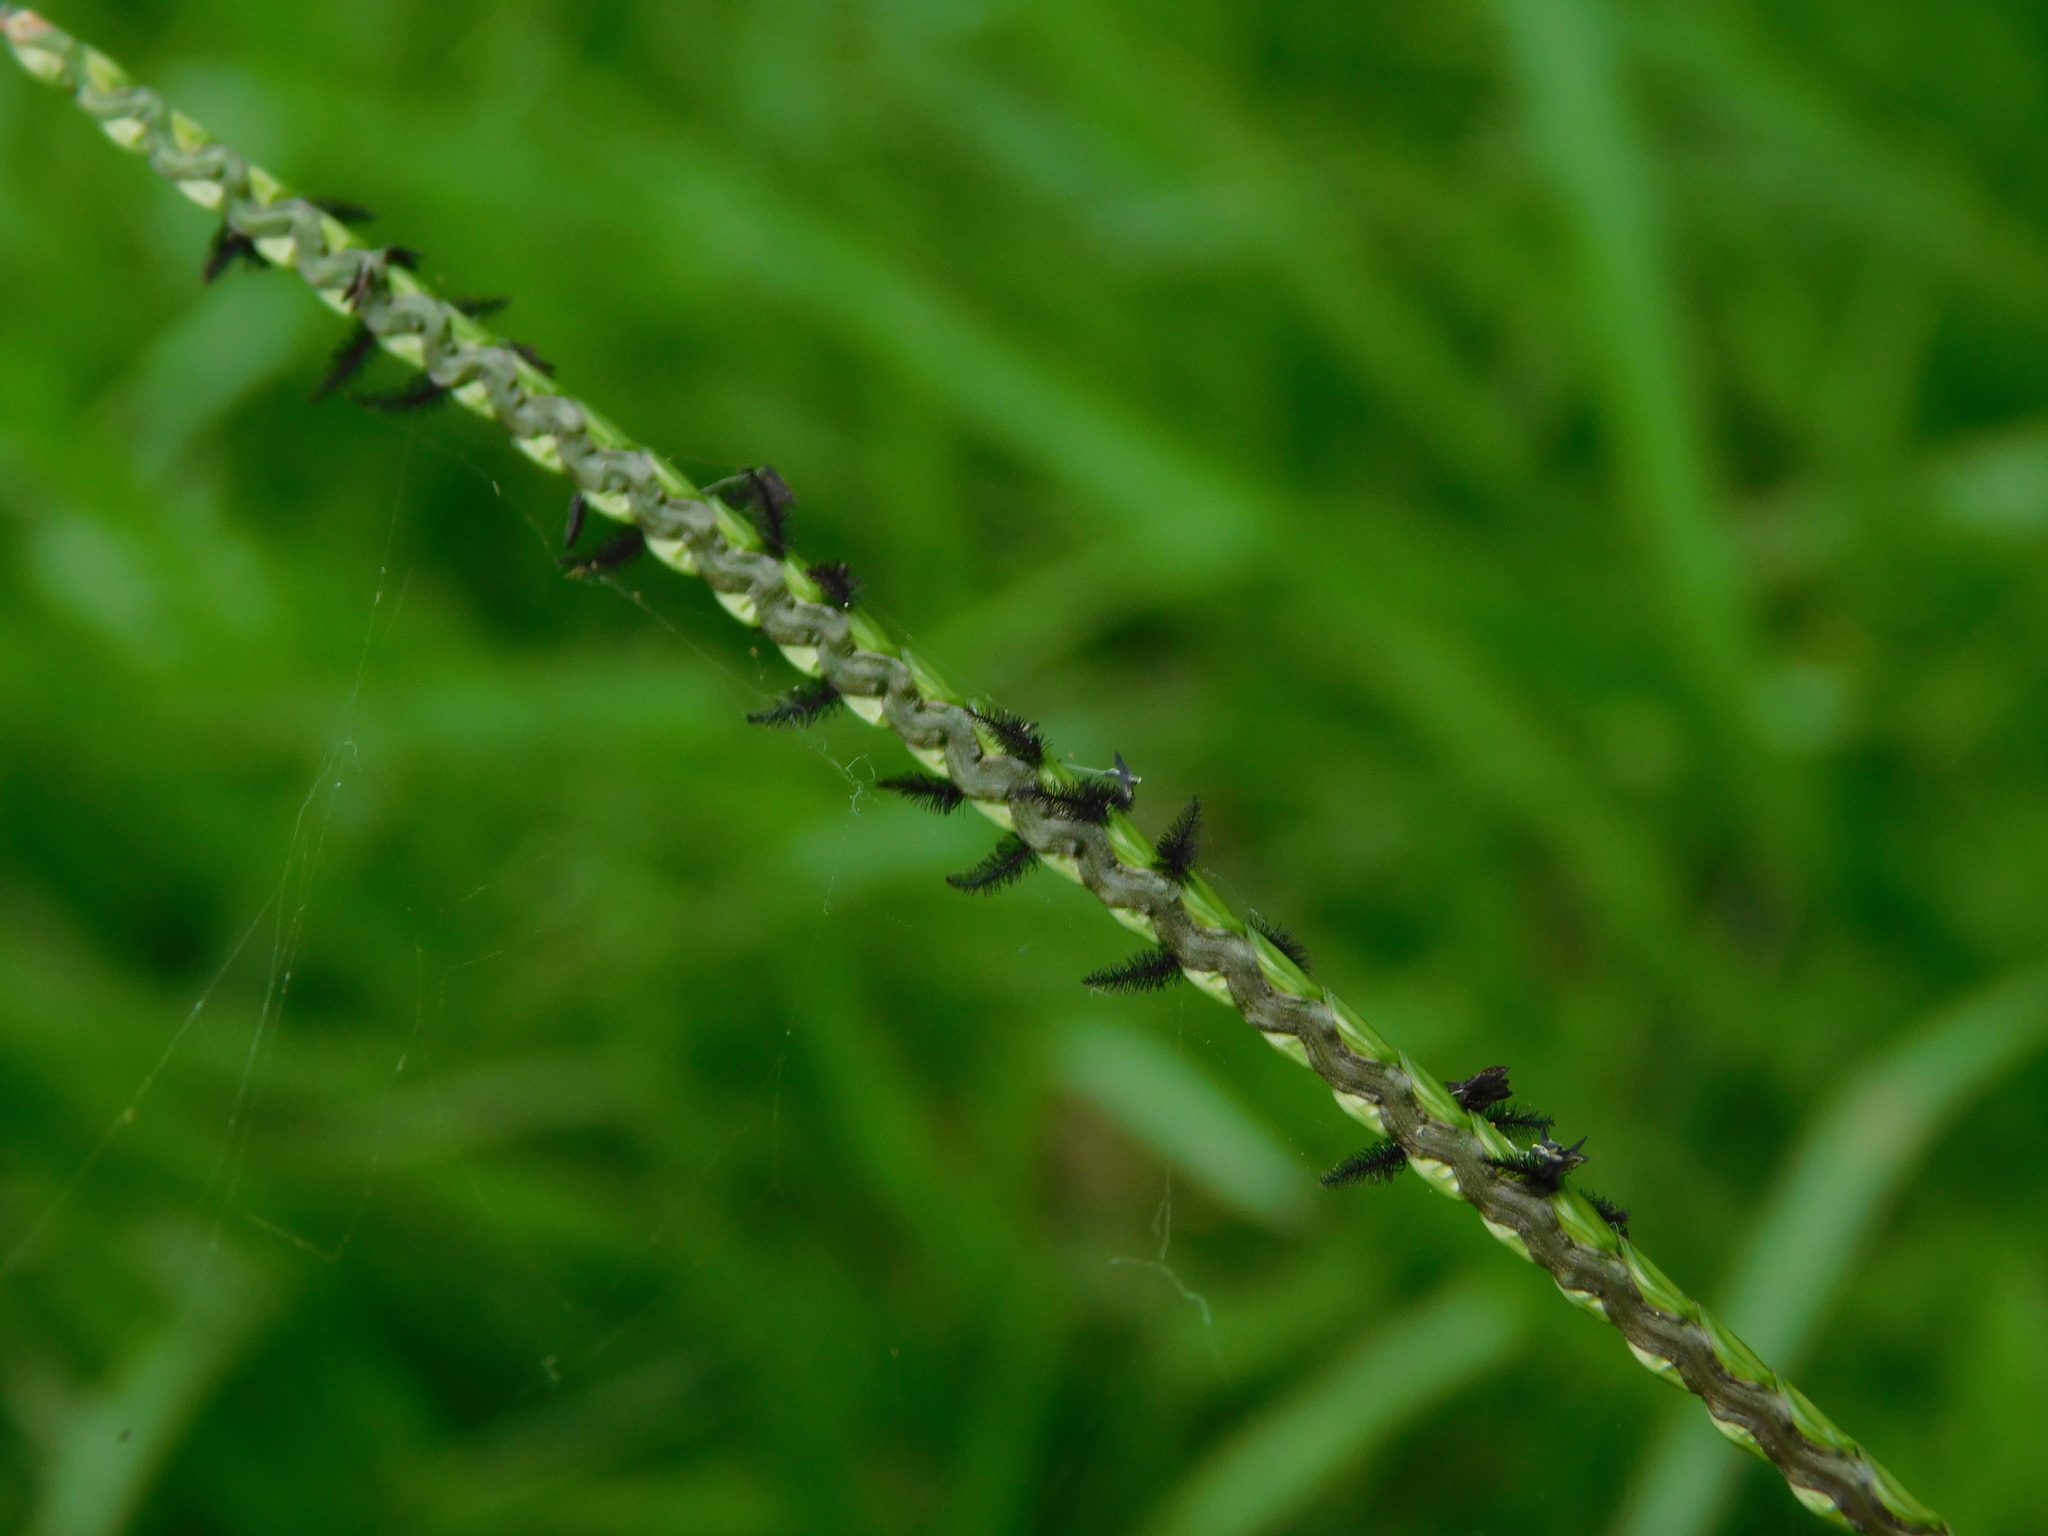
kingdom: Plantae
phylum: Tracheophyta
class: Liliopsida
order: Poales
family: Poaceae
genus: Paspalum
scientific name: Paspalum notatum
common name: Bahiagrass
